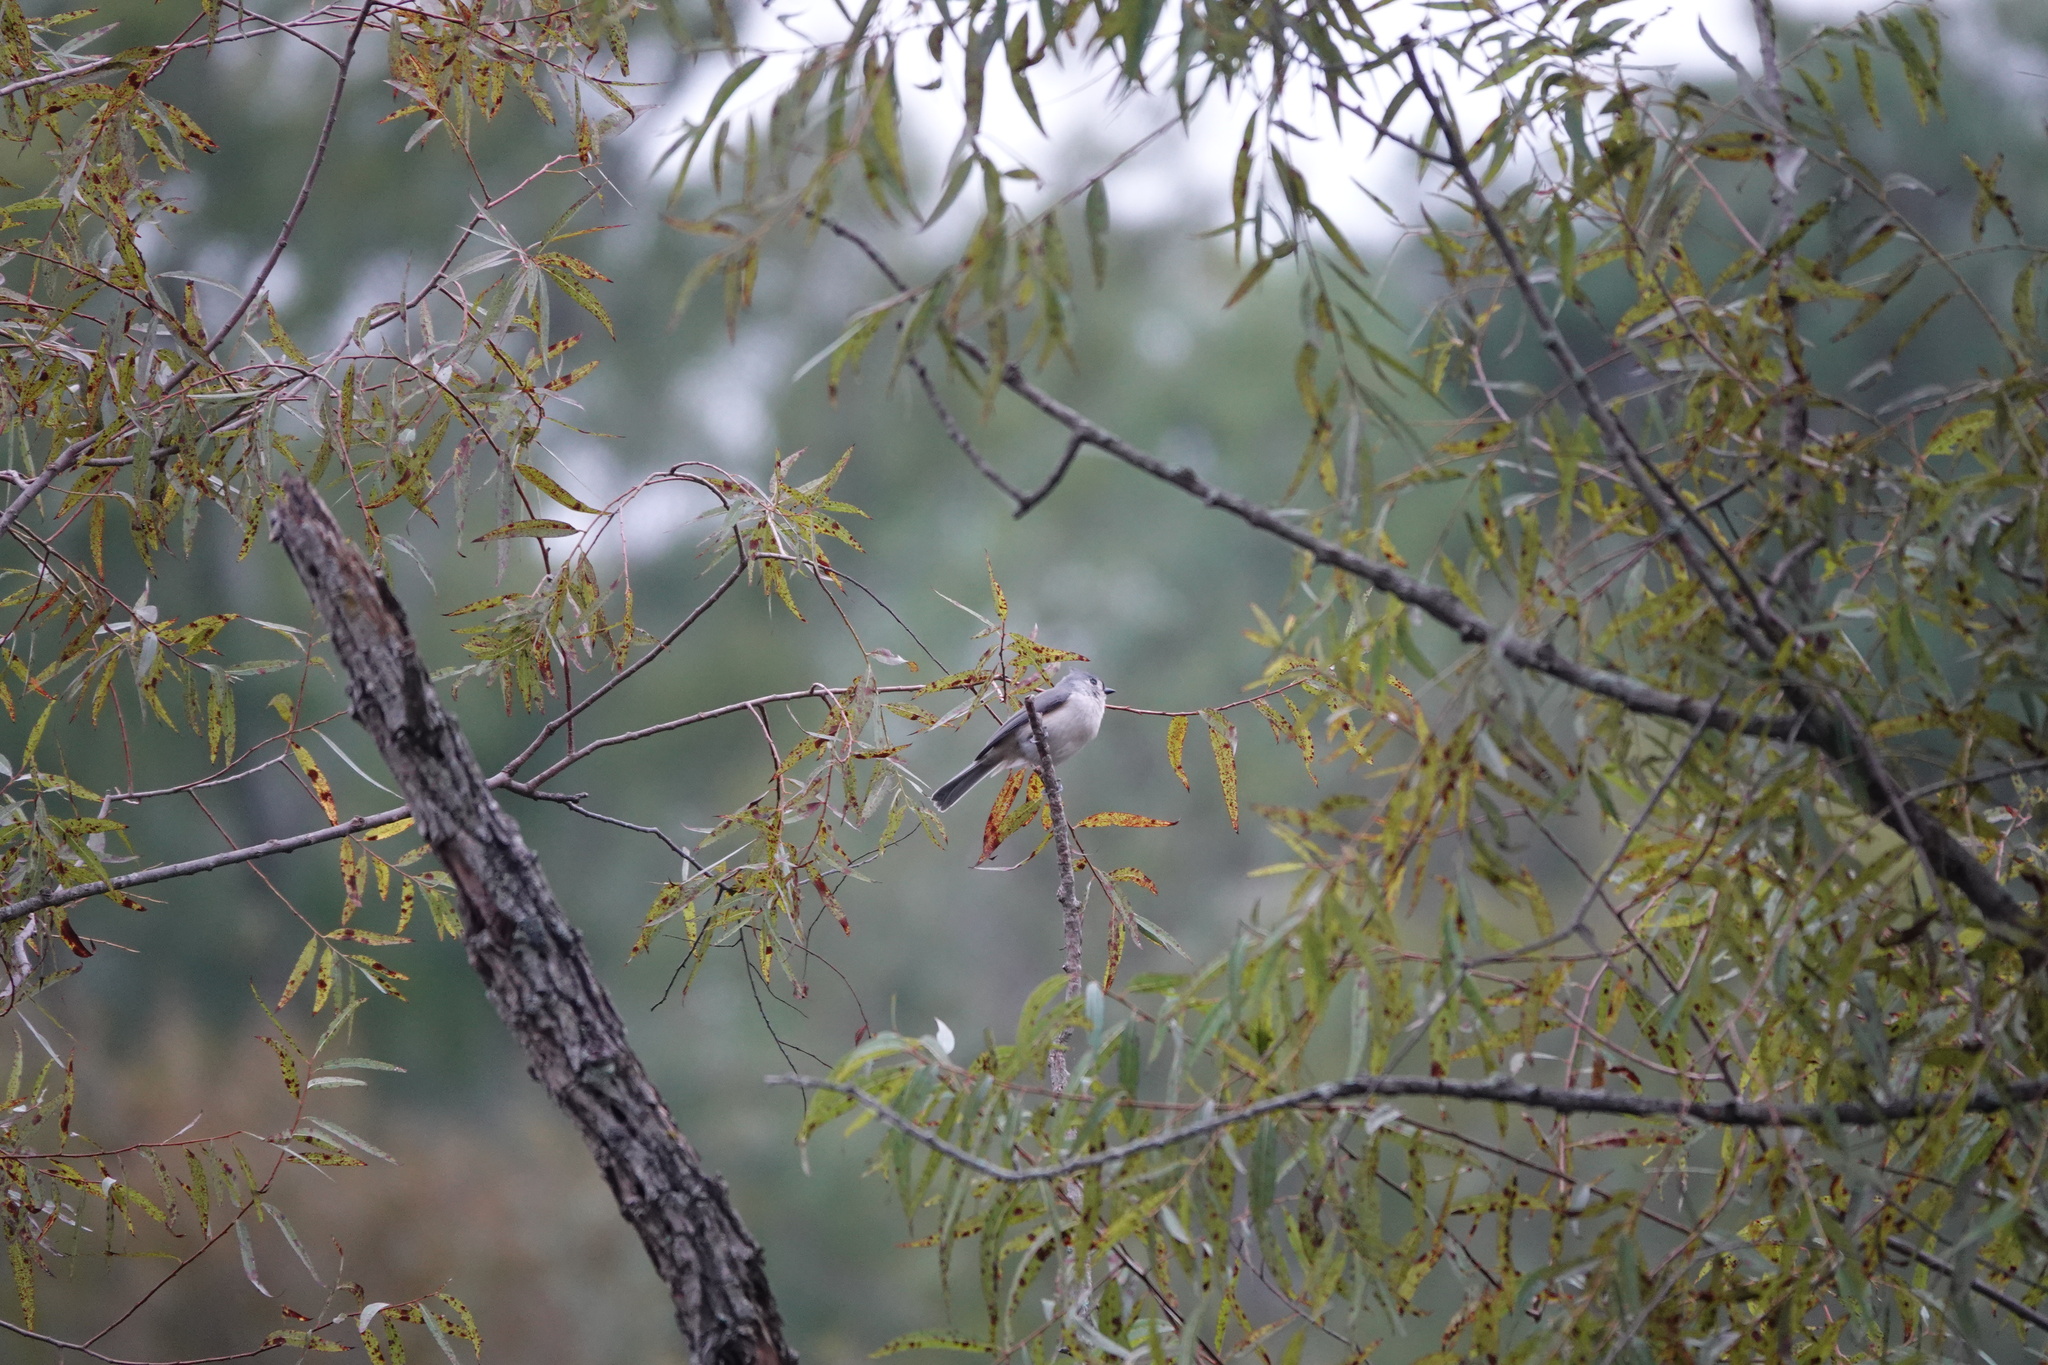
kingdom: Animalia
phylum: Chordata
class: Aves
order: Passeriformes
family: Paridae
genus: Baeolophus
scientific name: Baeolophus bicolor
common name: Tufted titmouse
